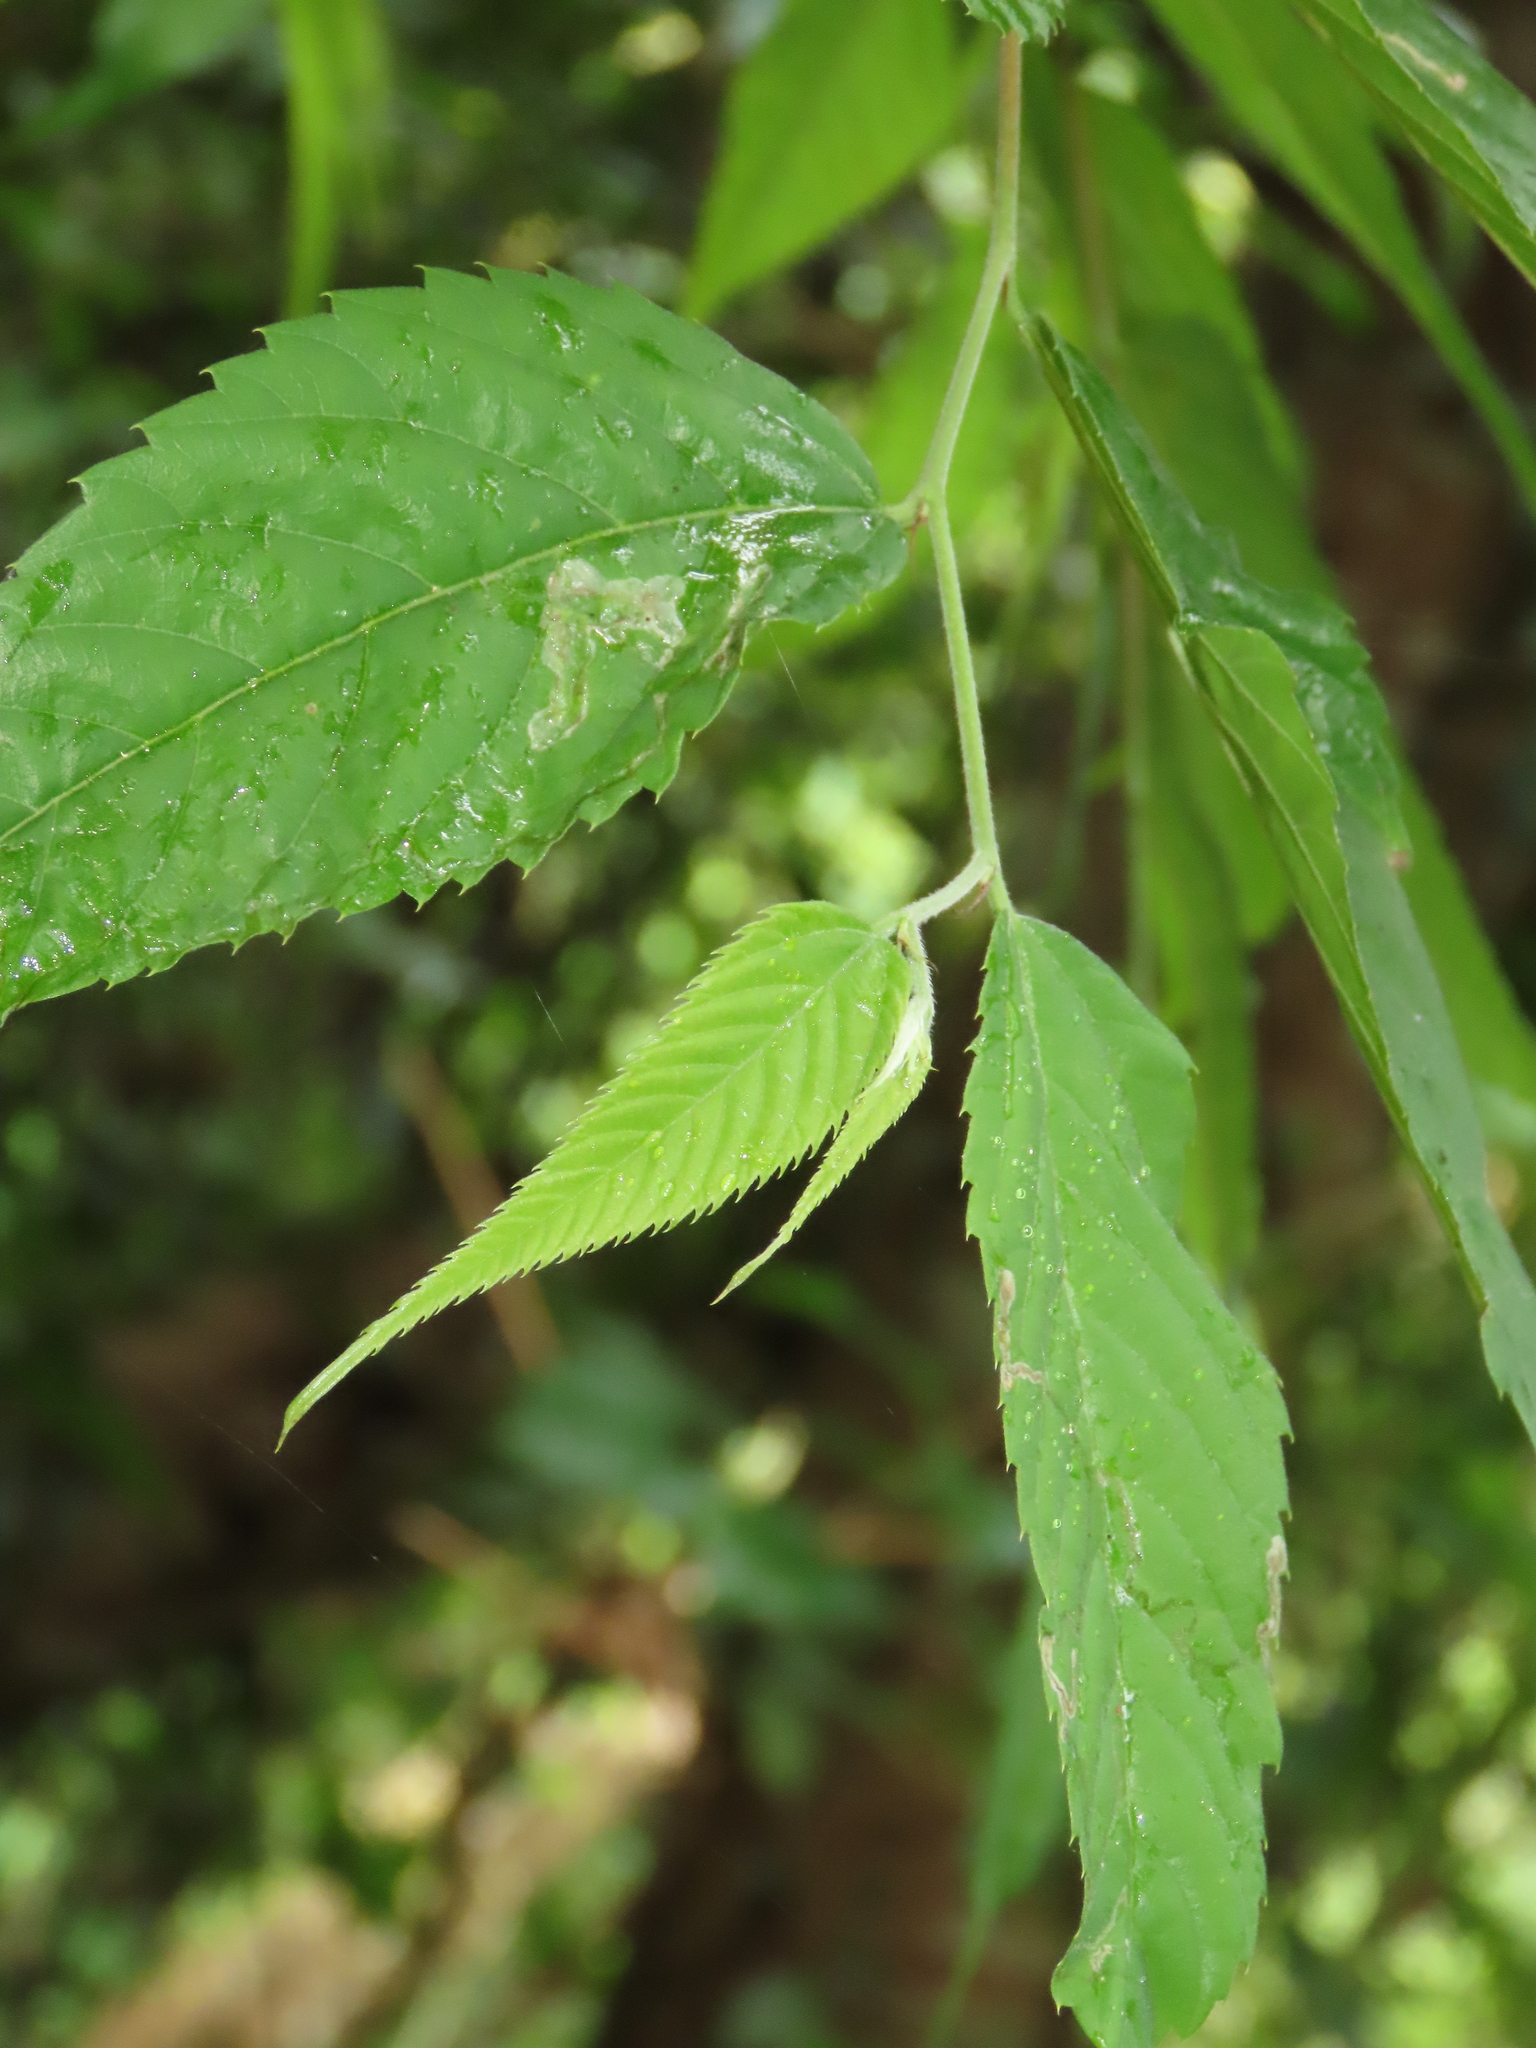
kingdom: Plantae
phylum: Tracheophyta
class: Magnoliopsida
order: Rosales
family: Cannabaceae
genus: Aphananthe
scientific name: Aphananthe aspera
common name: Mukutree
